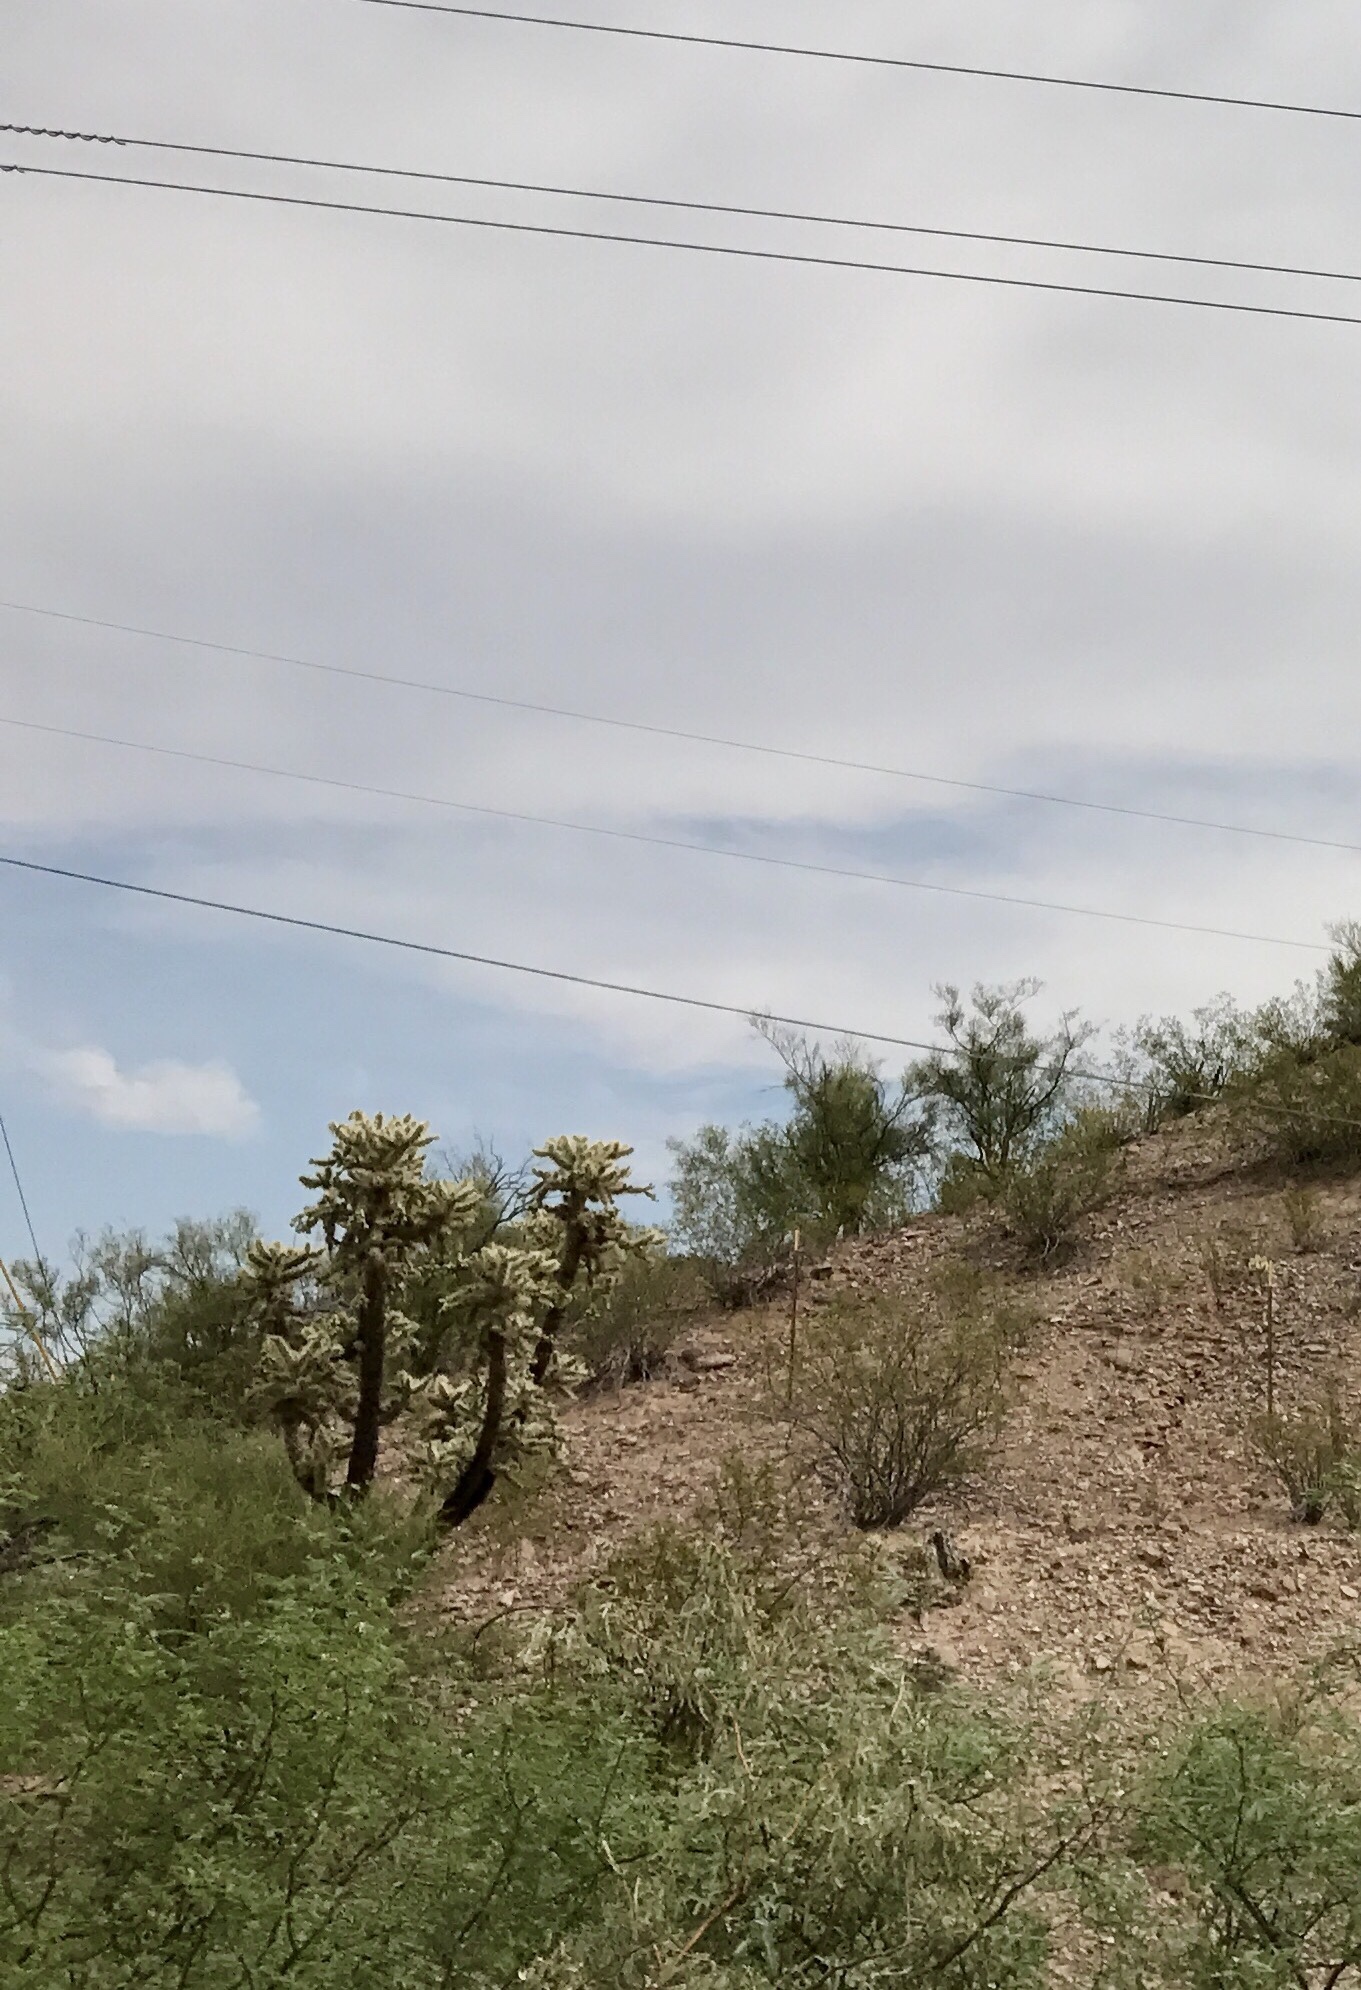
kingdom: Plantae
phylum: Tracheophyta
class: Magnoliopsida
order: Caryophyllales
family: Cactaceae
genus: Cylindropuntia
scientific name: Cylindropuntia fulgida
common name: Jumping cholla
